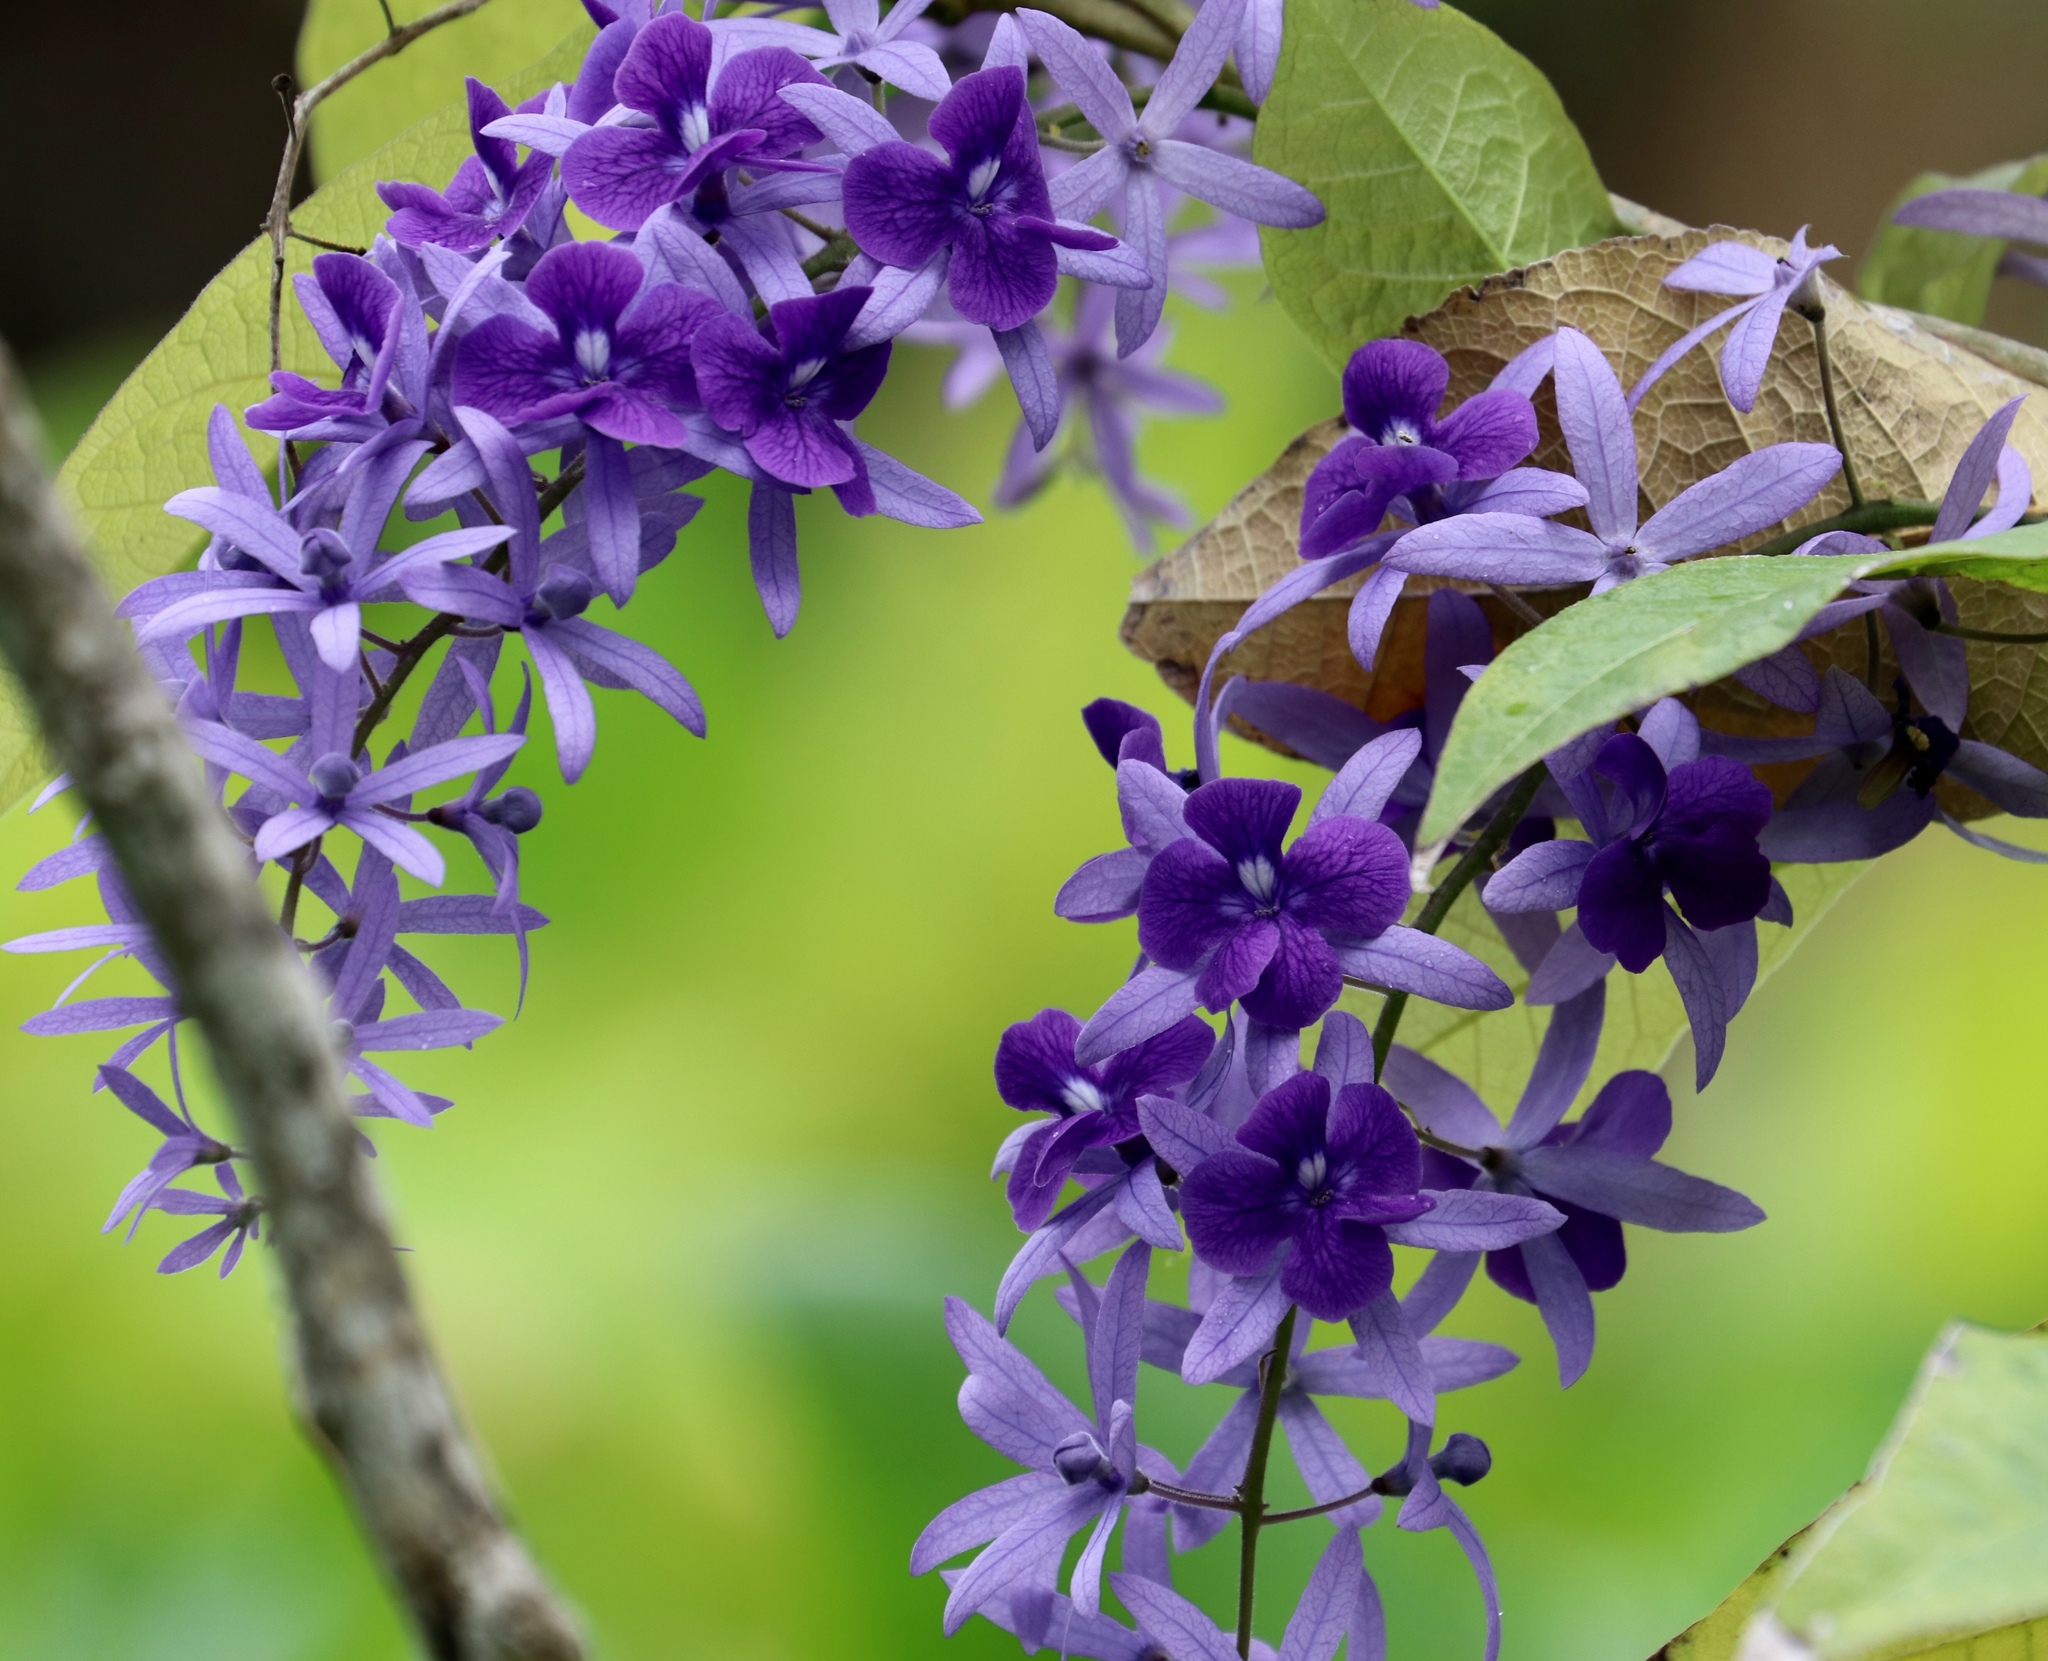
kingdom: Plantae
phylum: Tracheophyta
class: Magnoliopsida
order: Lamiales
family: Verbenaceae
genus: Petrea
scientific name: Petrea volubilis
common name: Queen's-wreath
